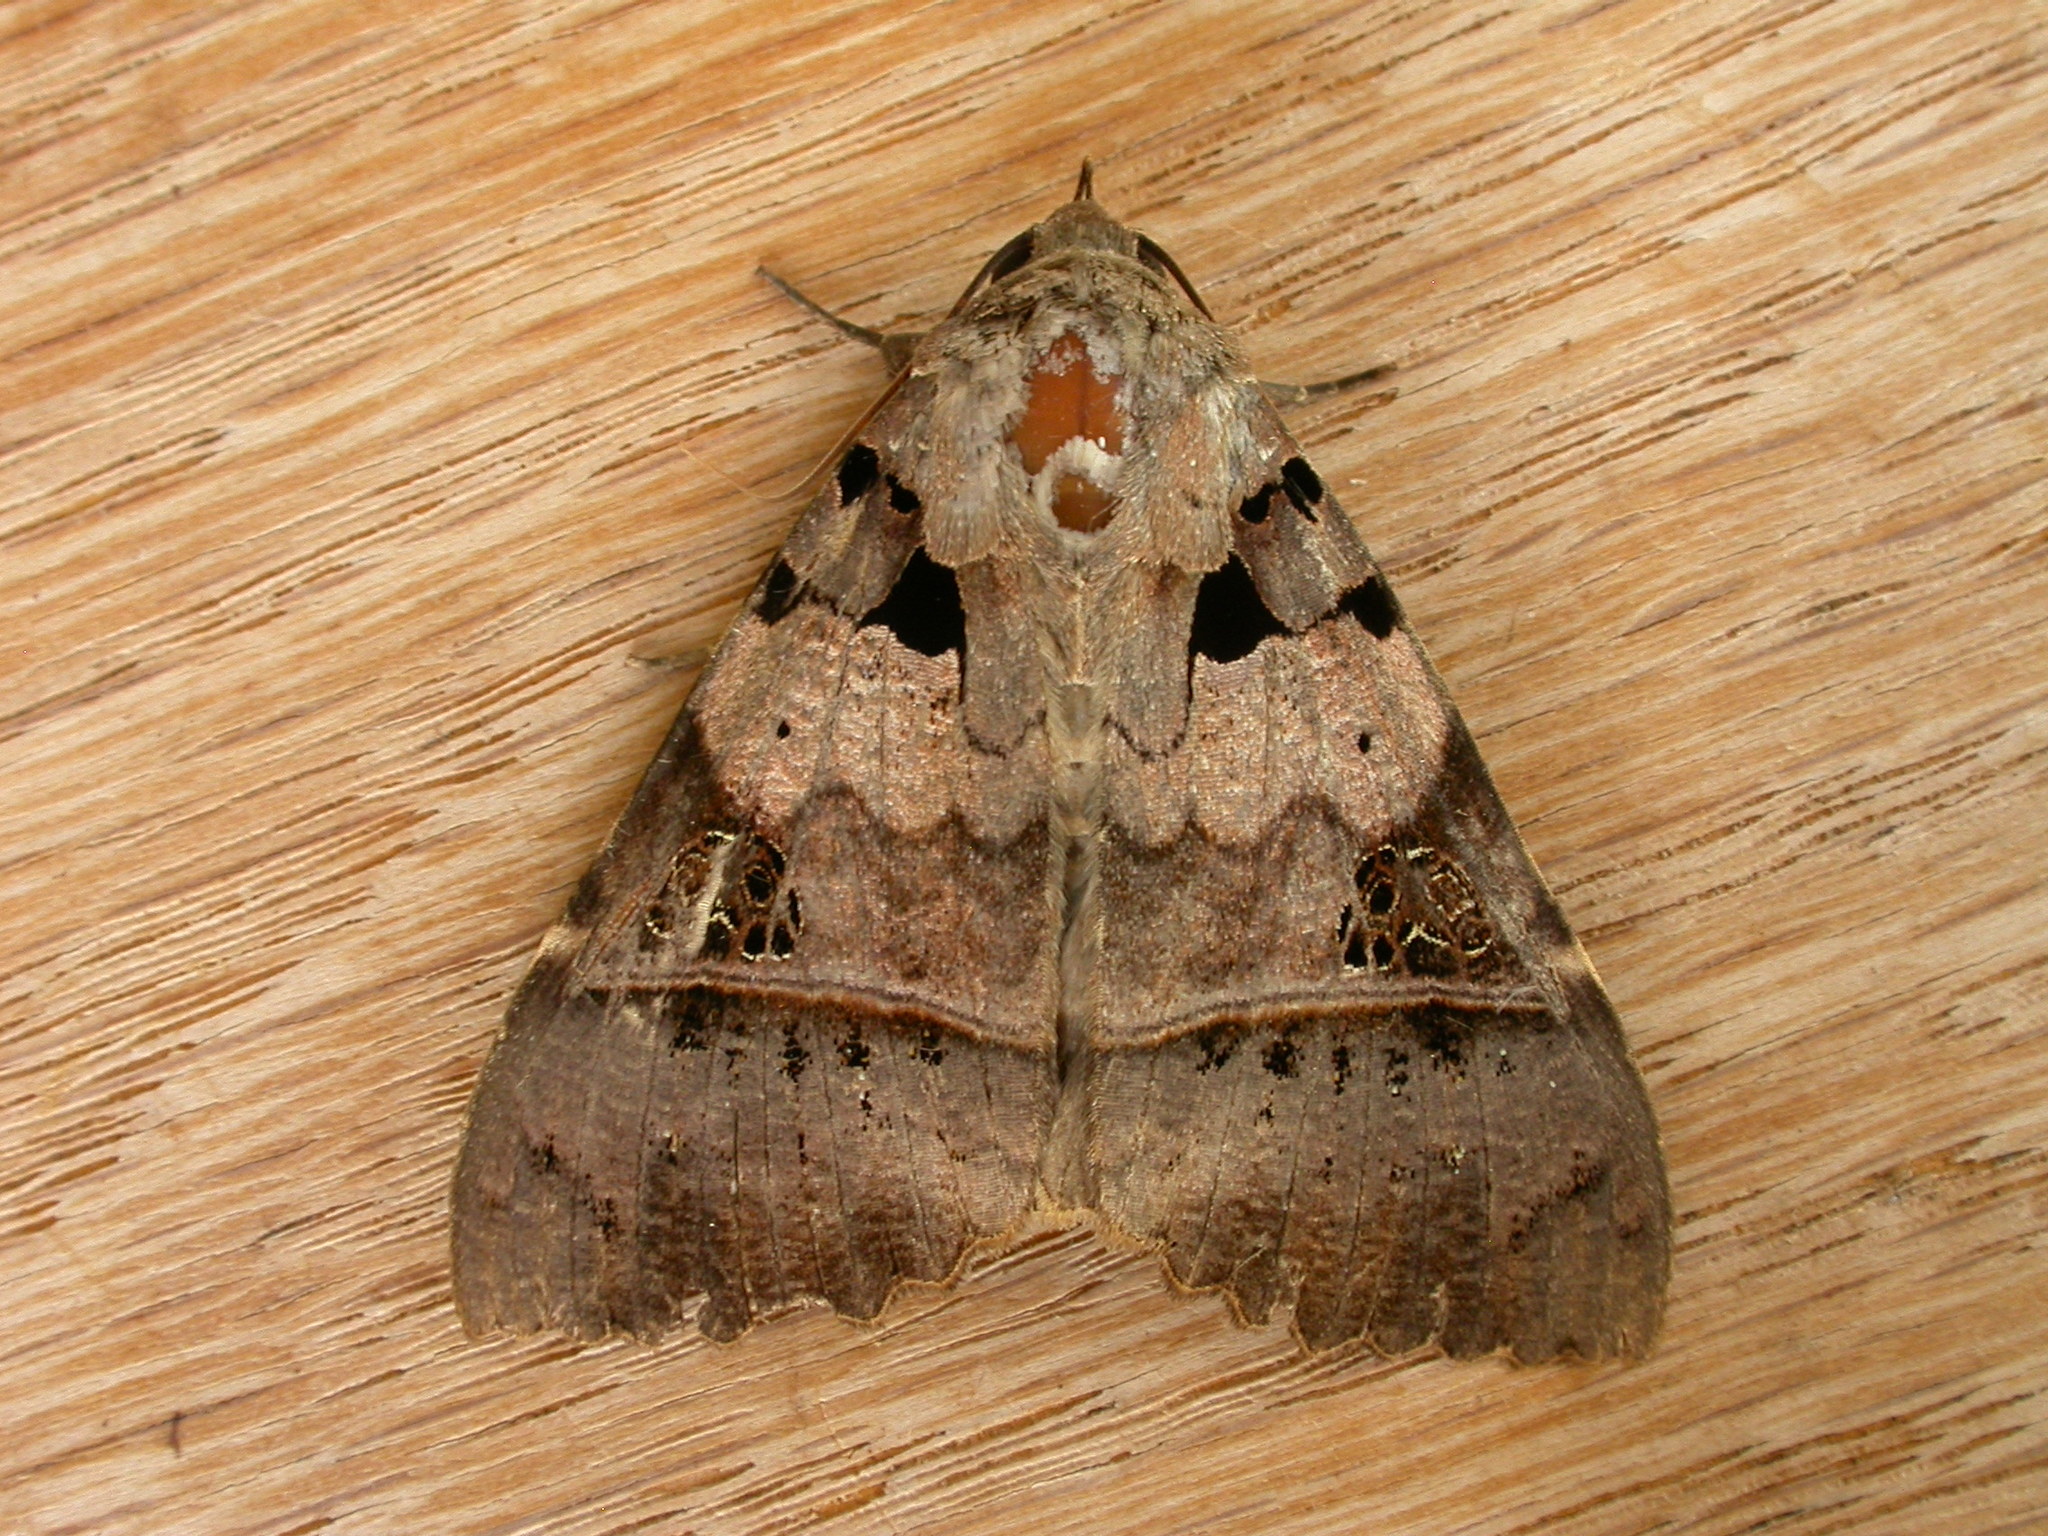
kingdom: Animalia
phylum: Arthropoda
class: Insecta
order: Lepidoptera
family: Erebidae
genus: Serrodes
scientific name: Serrodes campana
